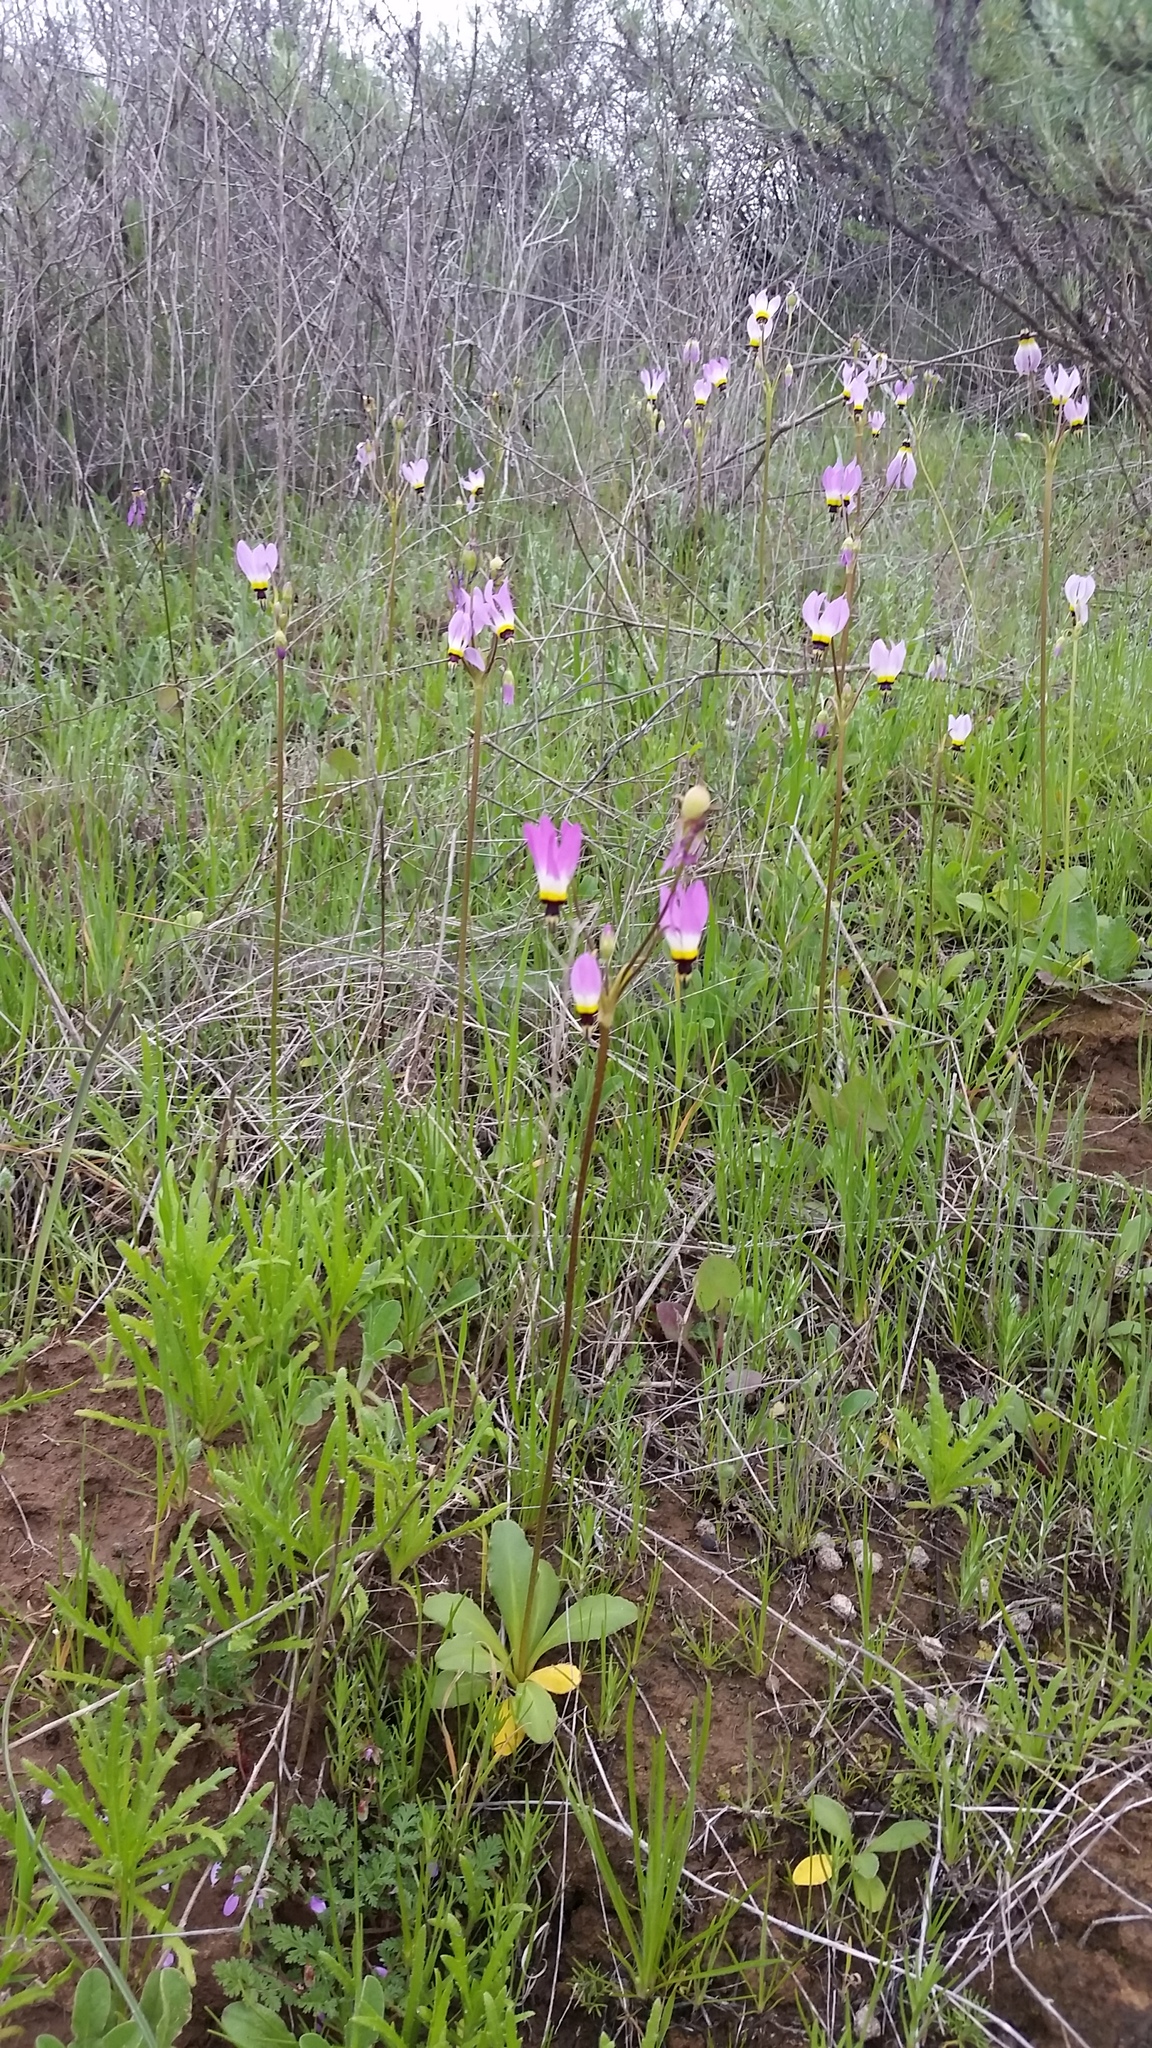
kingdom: Plantae
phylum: Tracheophyta
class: Magnoliopsida
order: Ericales
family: Primulaceae
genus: Dodecatheon
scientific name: Dodecatheon clevelandii
